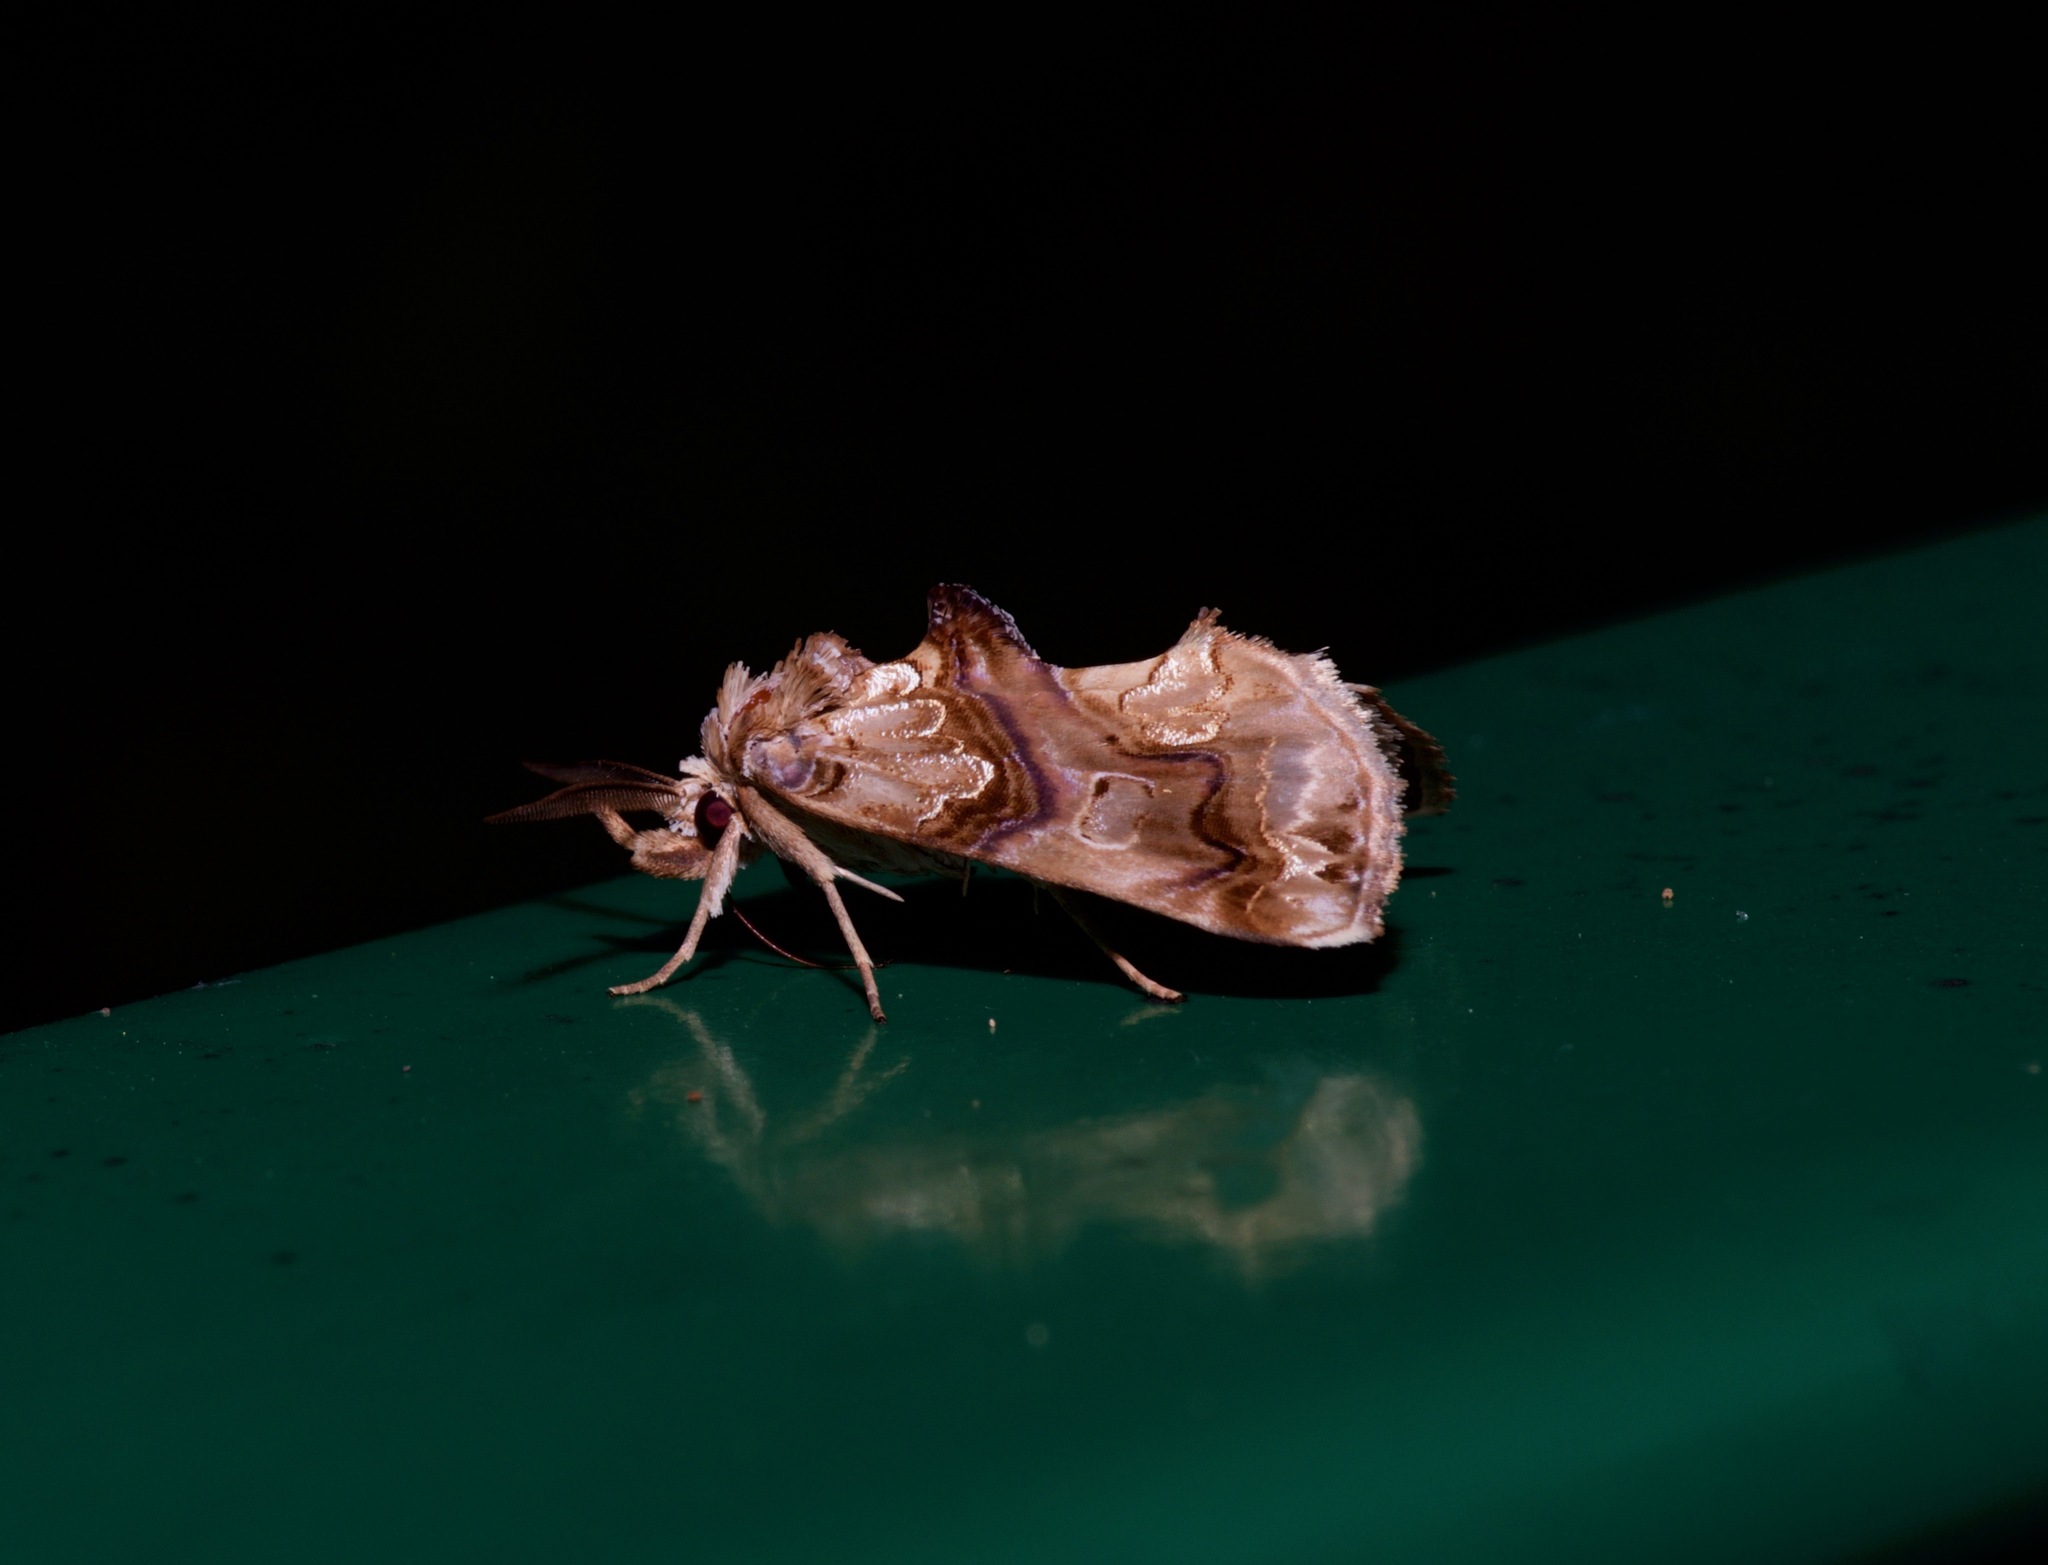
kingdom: Animalia
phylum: Arthropoda
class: Insecta
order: Lepidoptera
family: Erebidae
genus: Plusiodonta
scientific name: Plusiodonta compressipalpis
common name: Moonseed moth
